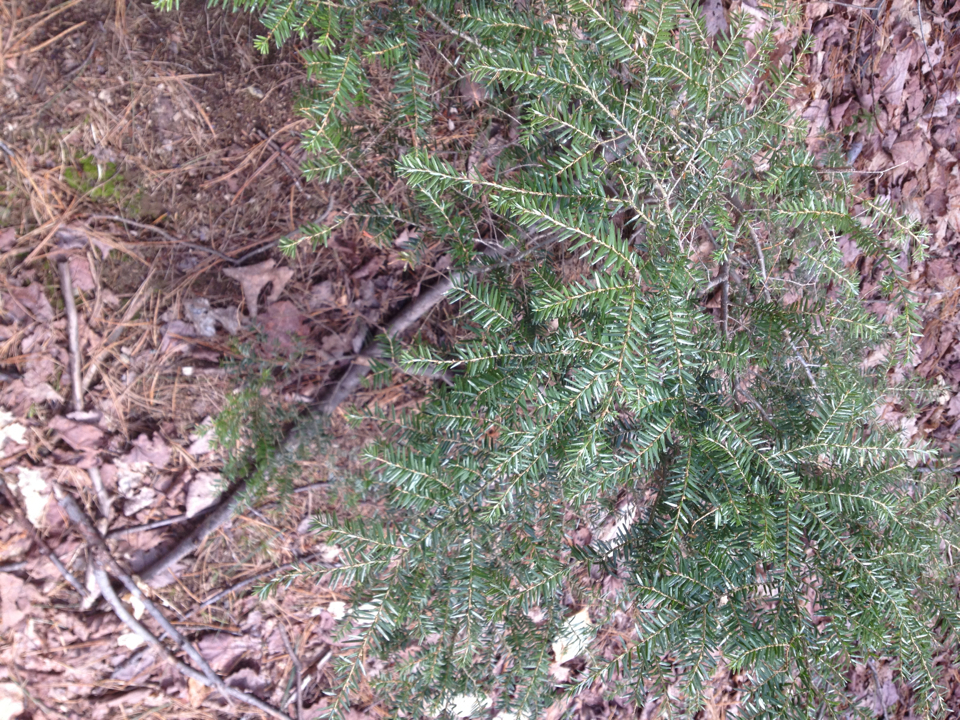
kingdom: Plantae
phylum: Tracheophyta
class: Pinopsida
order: Pinales
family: Pinaceae
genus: Tsuga
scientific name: Tsuga canadensis
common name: Eastern hemlock
